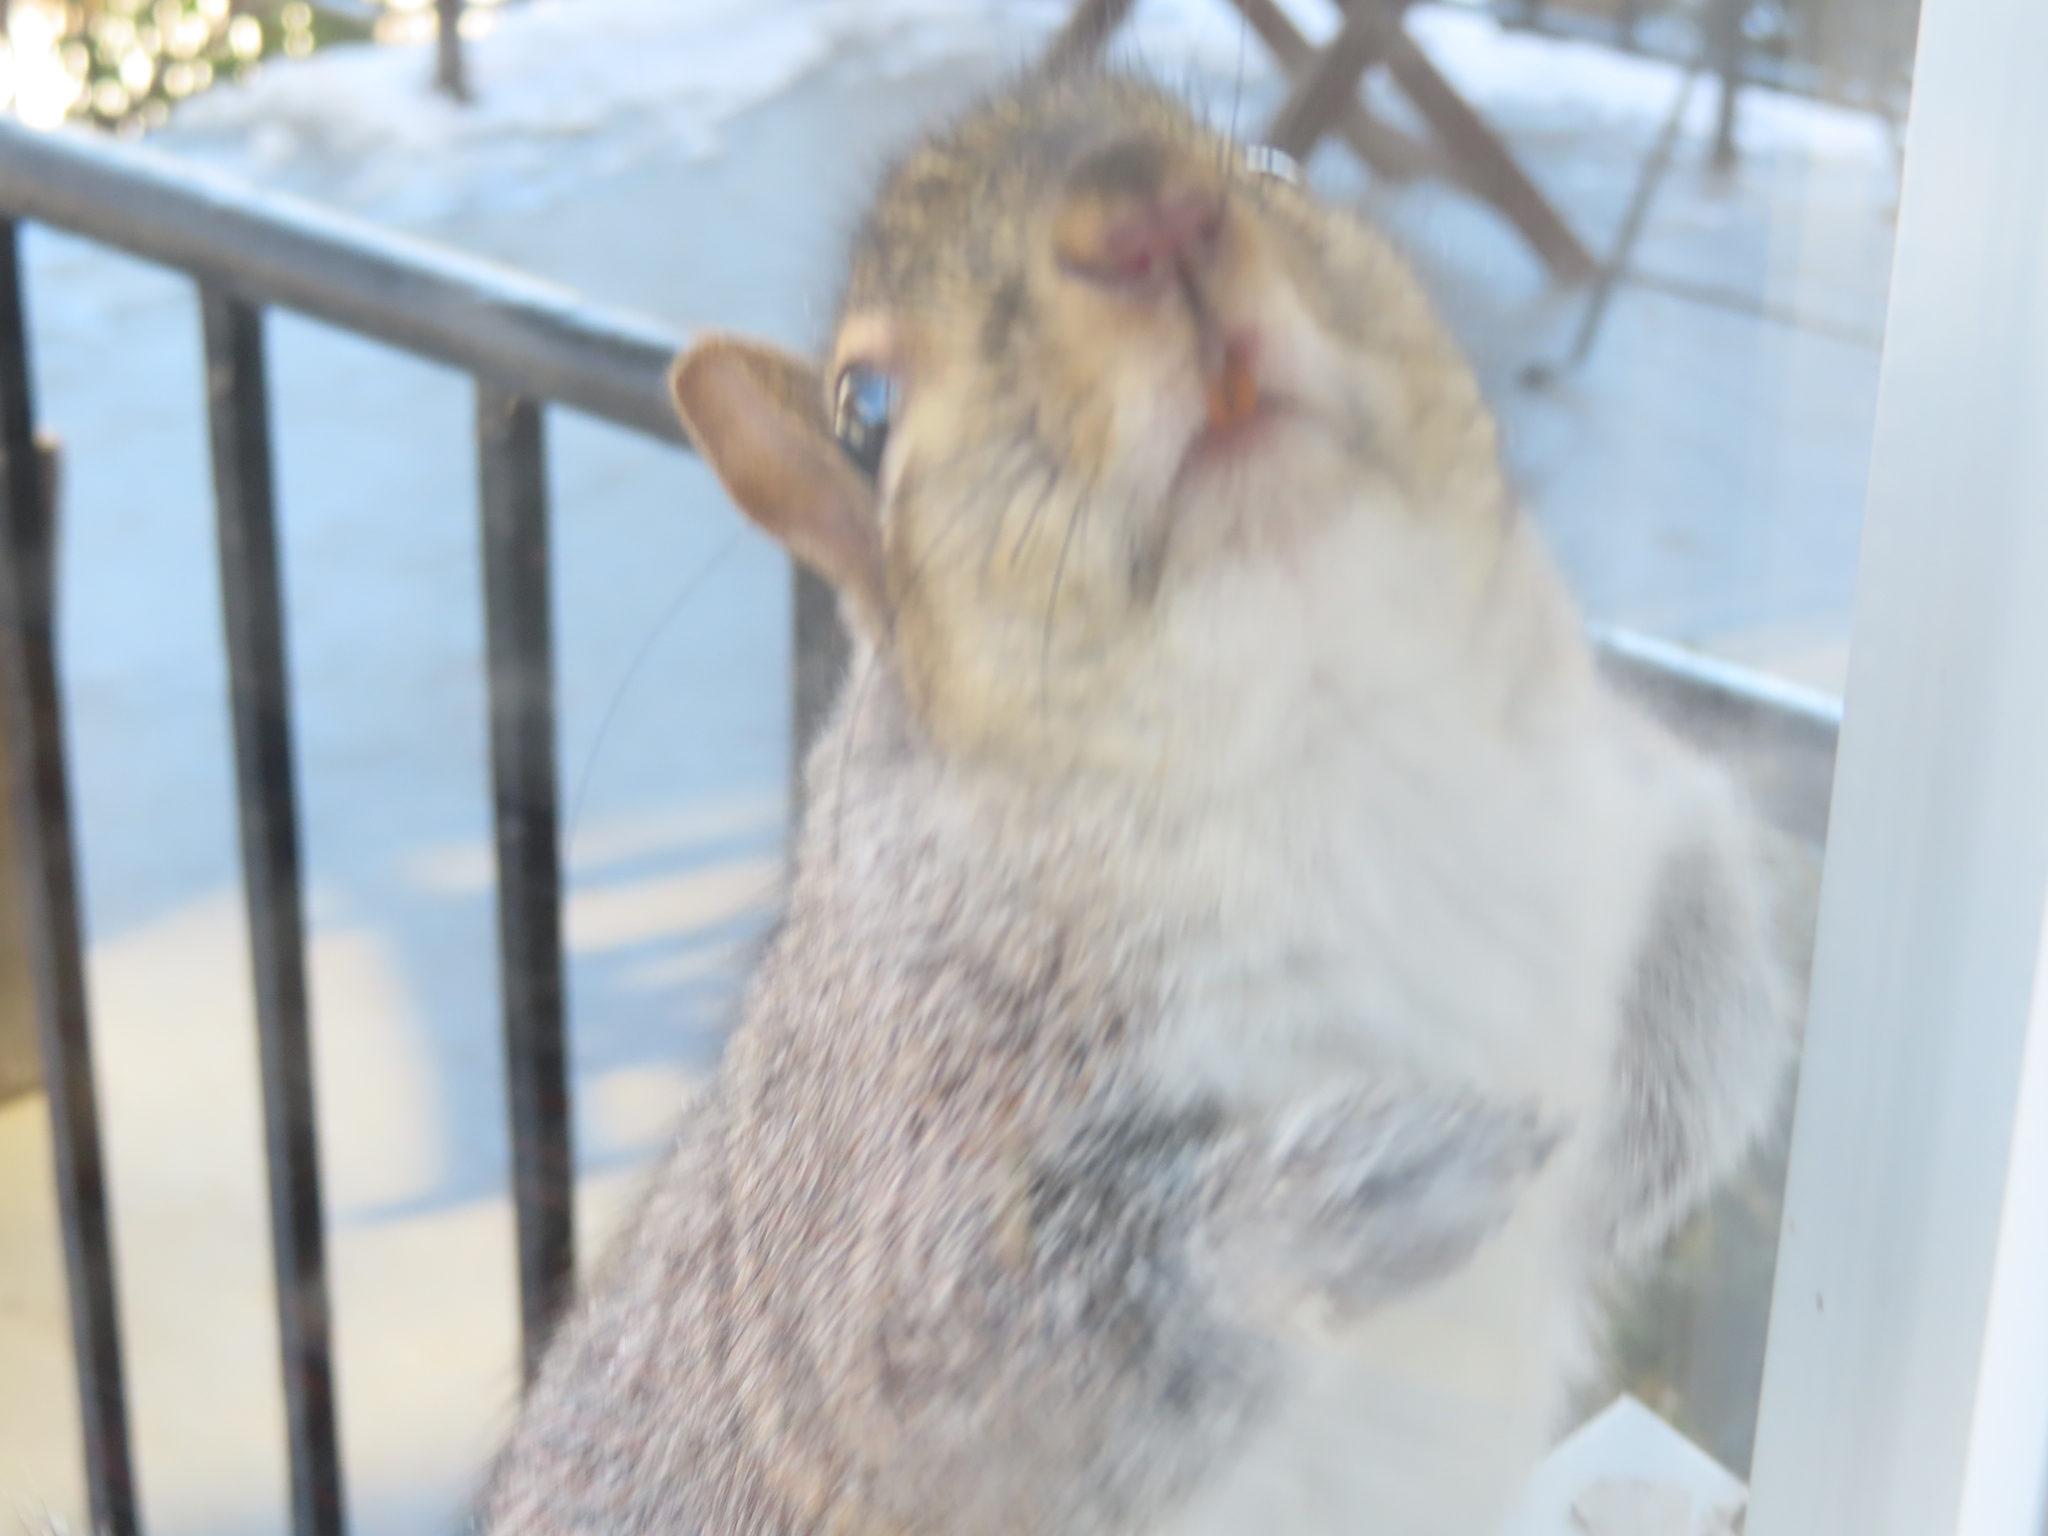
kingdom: Animalia
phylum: Chordata
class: Mammalia
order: Rodentia
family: Sciuridae
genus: Sciurus
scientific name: Sciurus carolinensis
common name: Eastern gray squirrel
